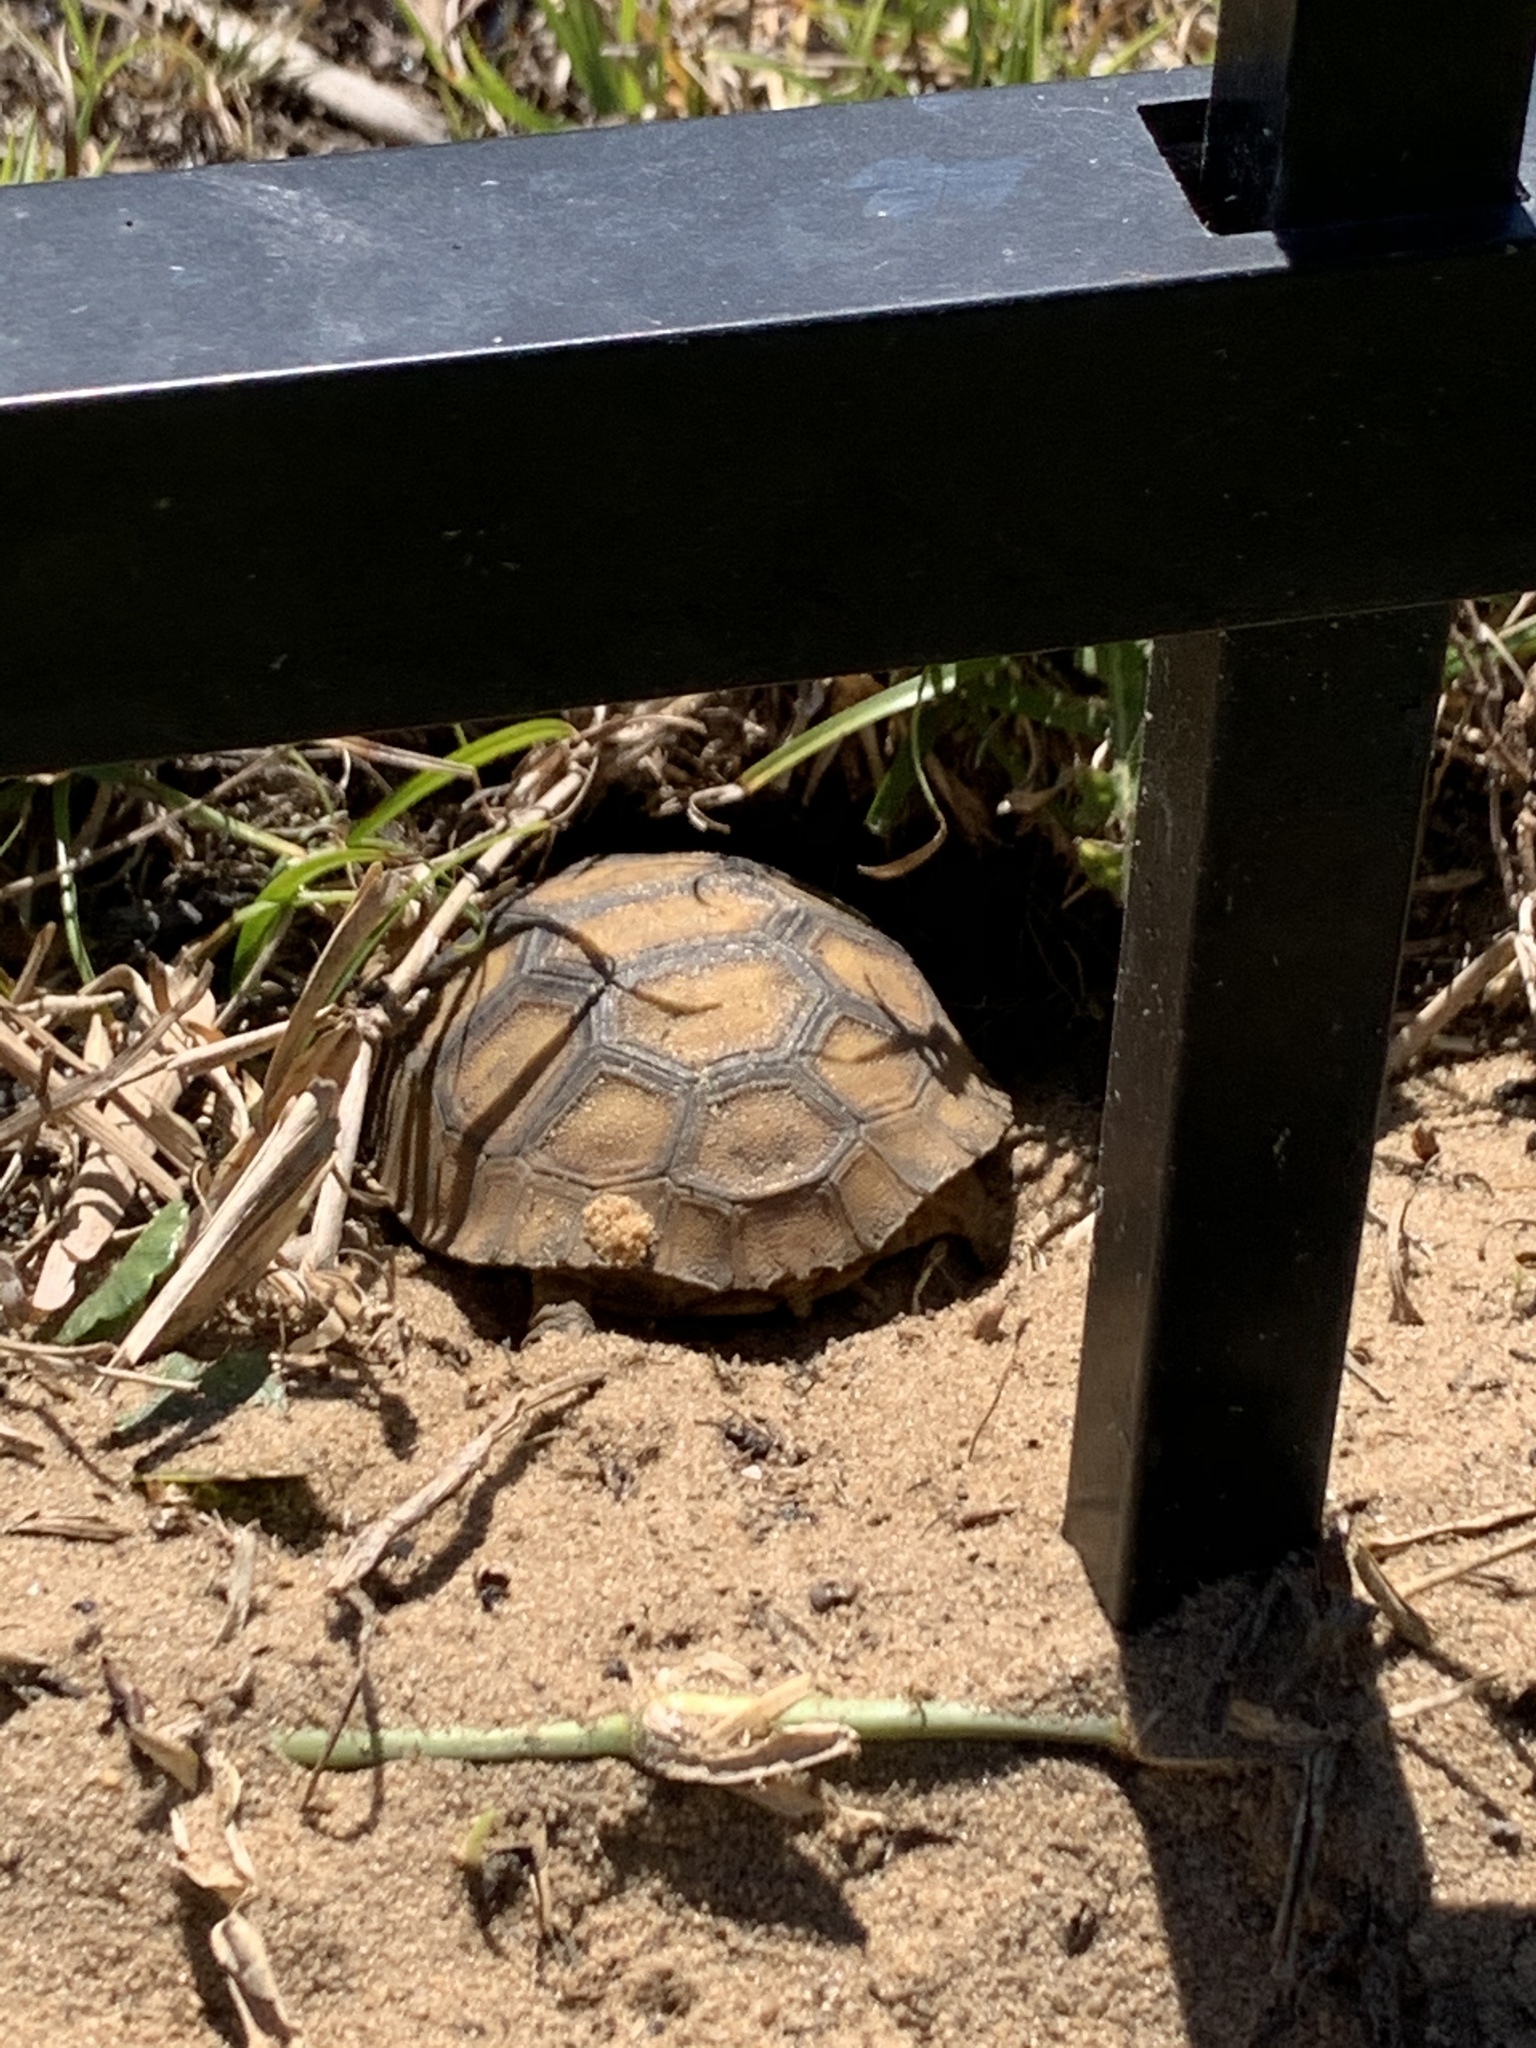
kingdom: Animalia
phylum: Chordata
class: Testudines
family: Testudinidae
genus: Gopherus
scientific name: Gopherus polyphemus
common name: Florida gopher tortoise
